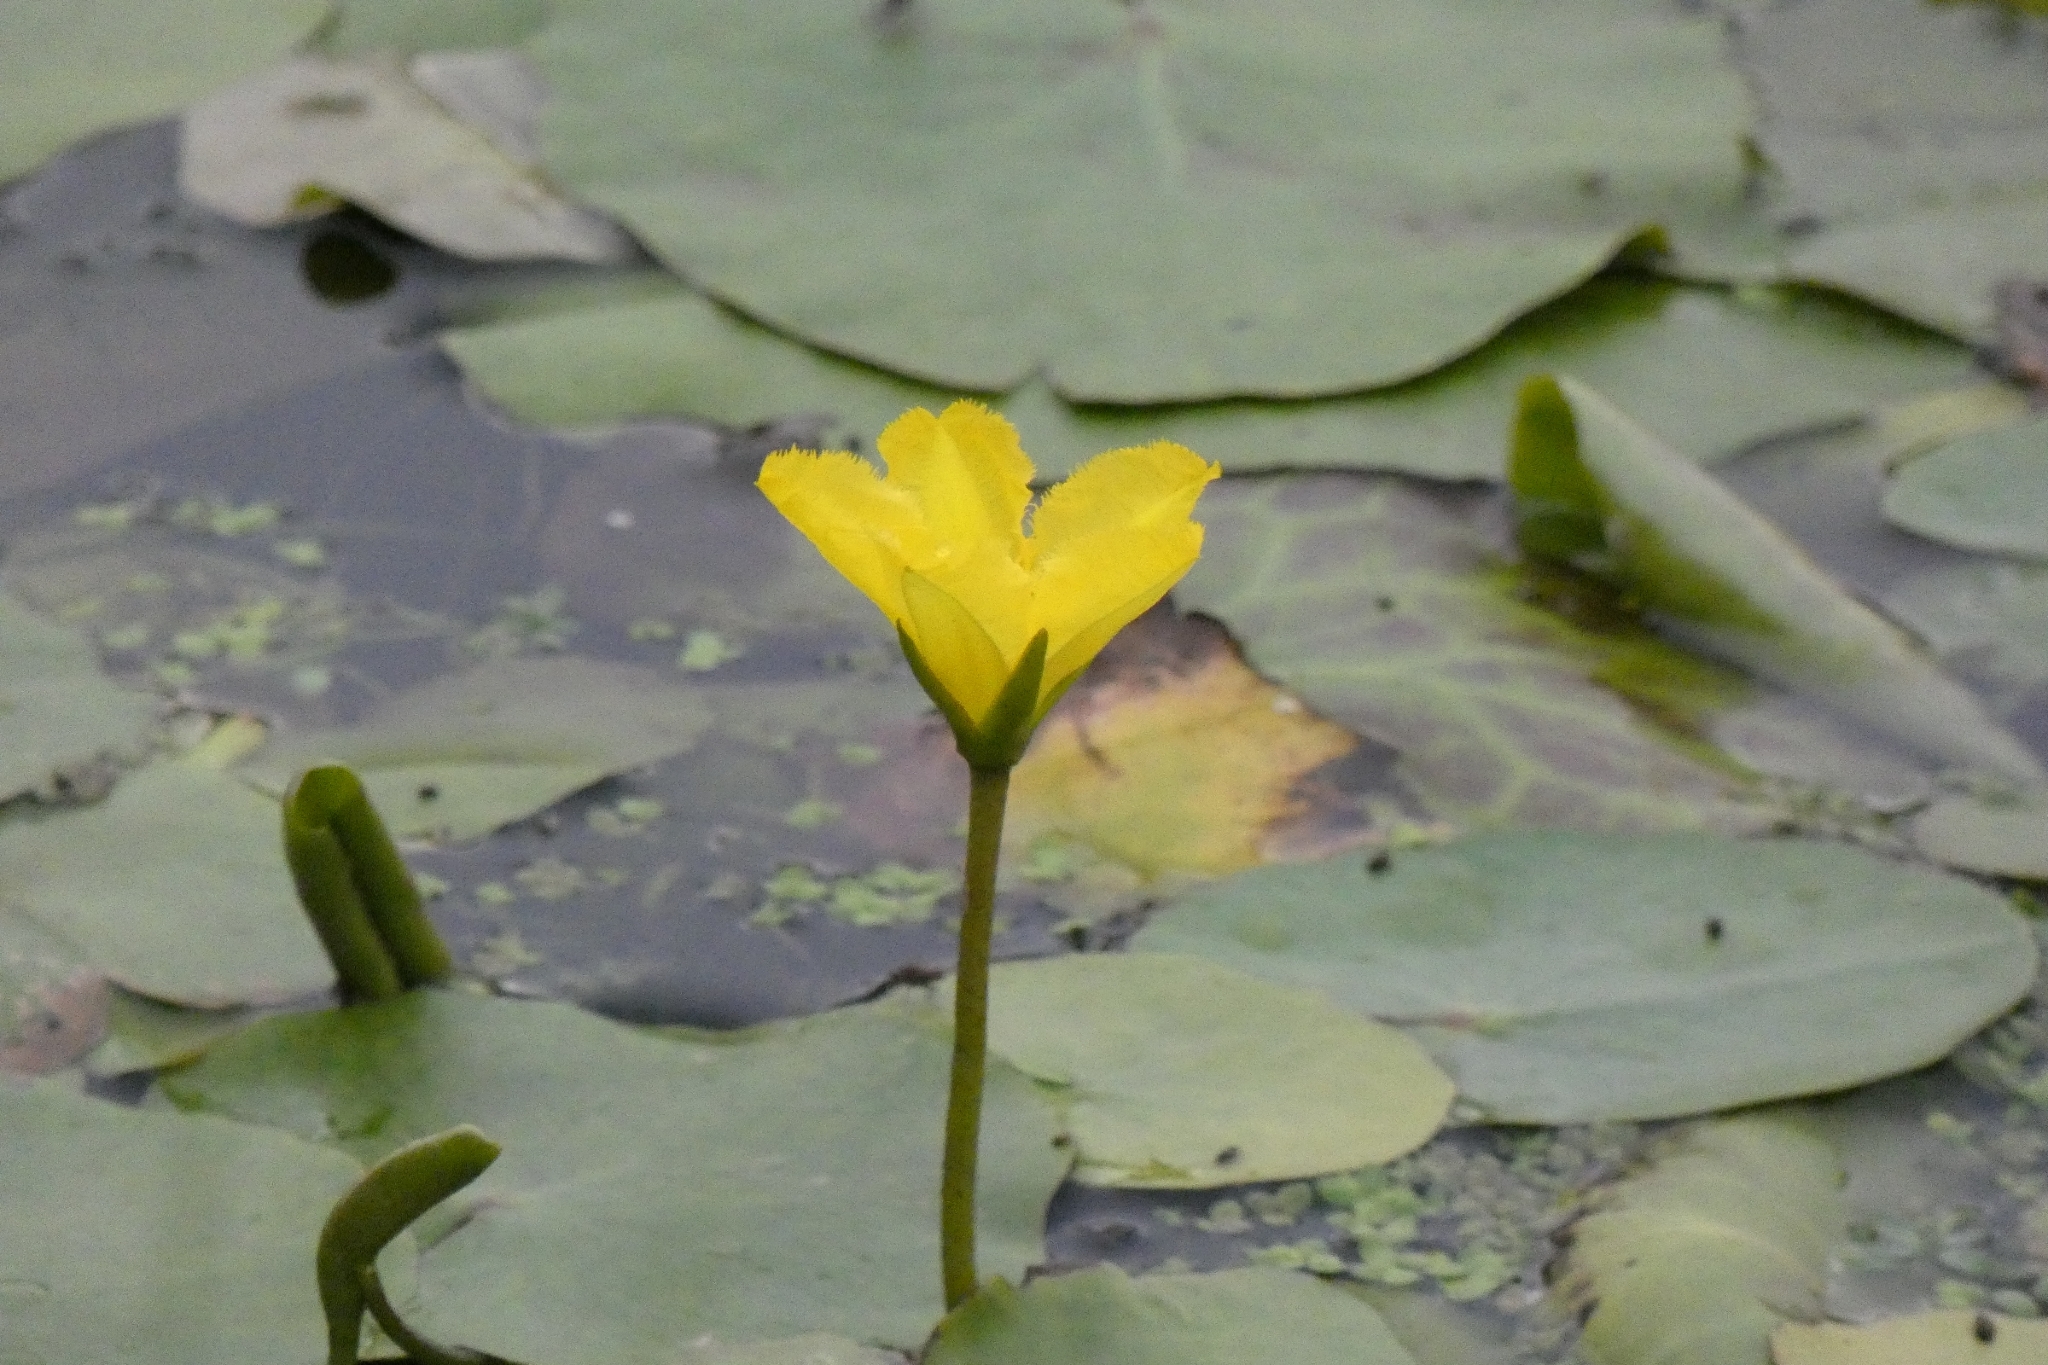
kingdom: Plantae
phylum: Tracheophyta
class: Magnoliopsida
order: Asterales
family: Menyanthaceae
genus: Nymphoides
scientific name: Nymphoides peltata
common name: Fringed water-lily
